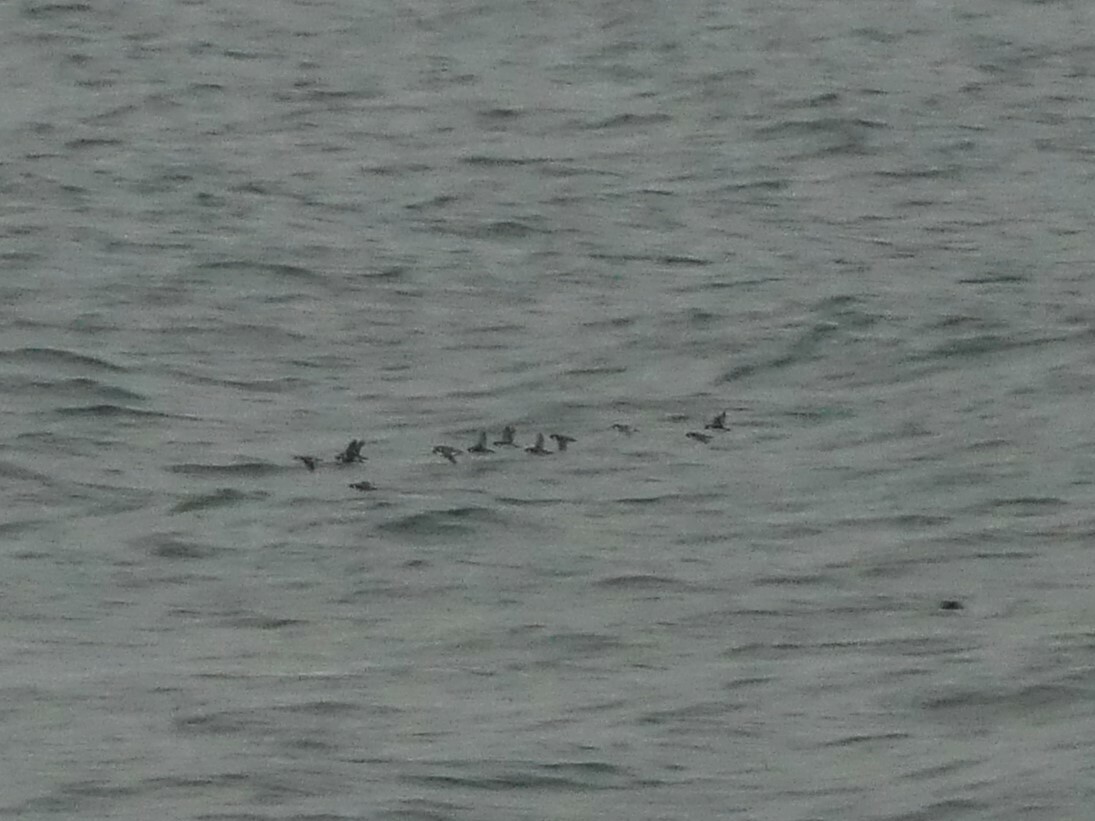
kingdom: Animalia
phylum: Chordata
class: Aves
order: Charadriiformes
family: Alcidae
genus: Synthliboramphus
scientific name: Synthliboramphus antiquus
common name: Ancient murrelet
